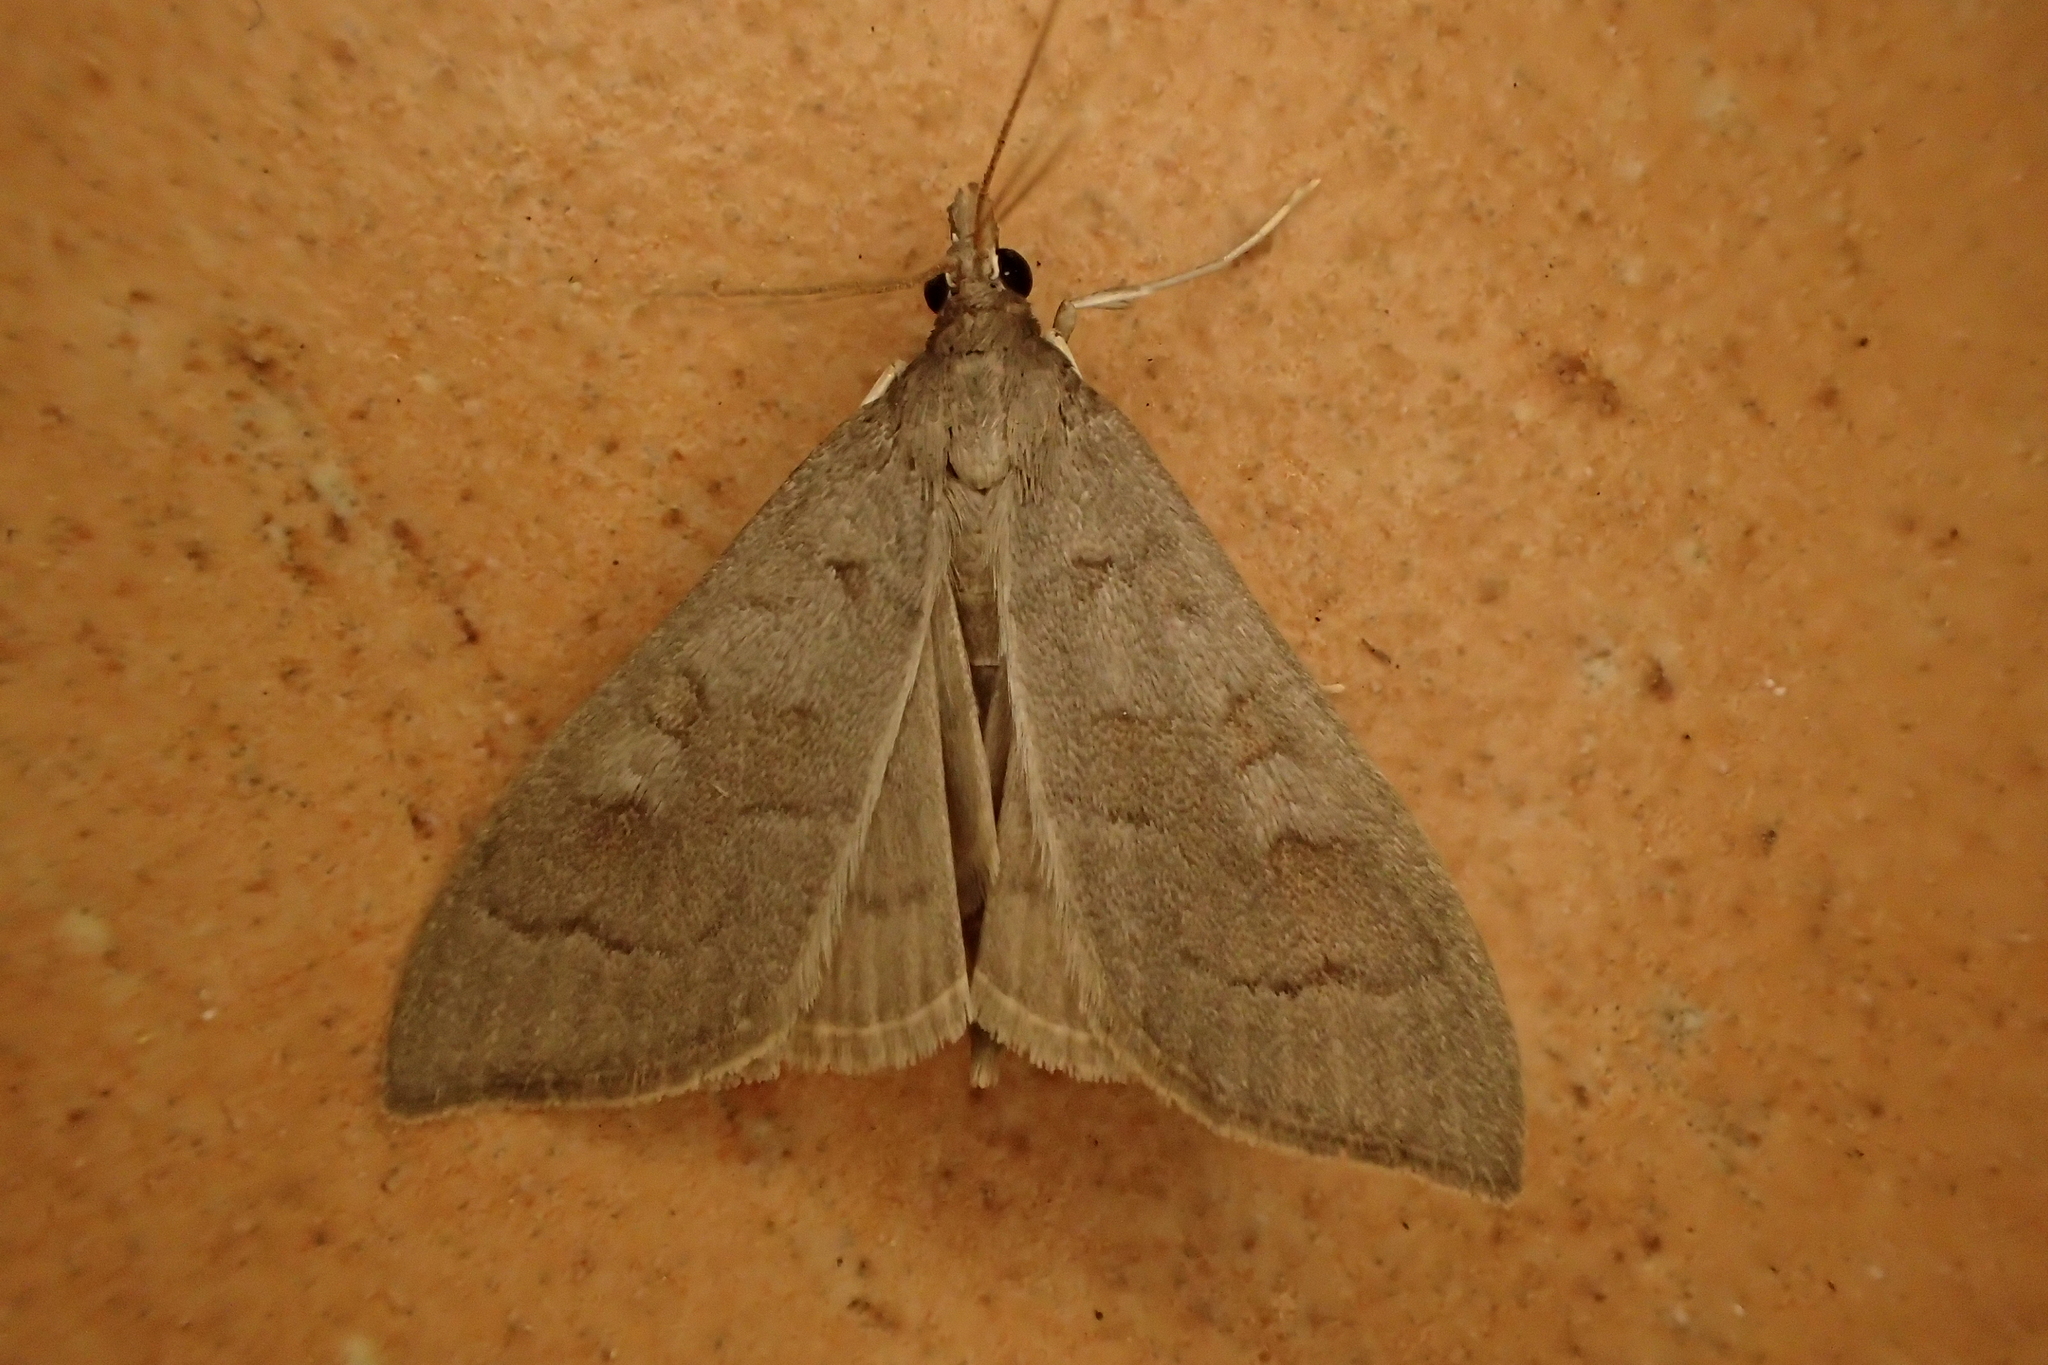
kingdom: Animalia
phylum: Arthropoda
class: Insecta
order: Lepidoptera
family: Crambidae
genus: Mecyna
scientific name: Mecyna asinalis
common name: Coastal pearl
